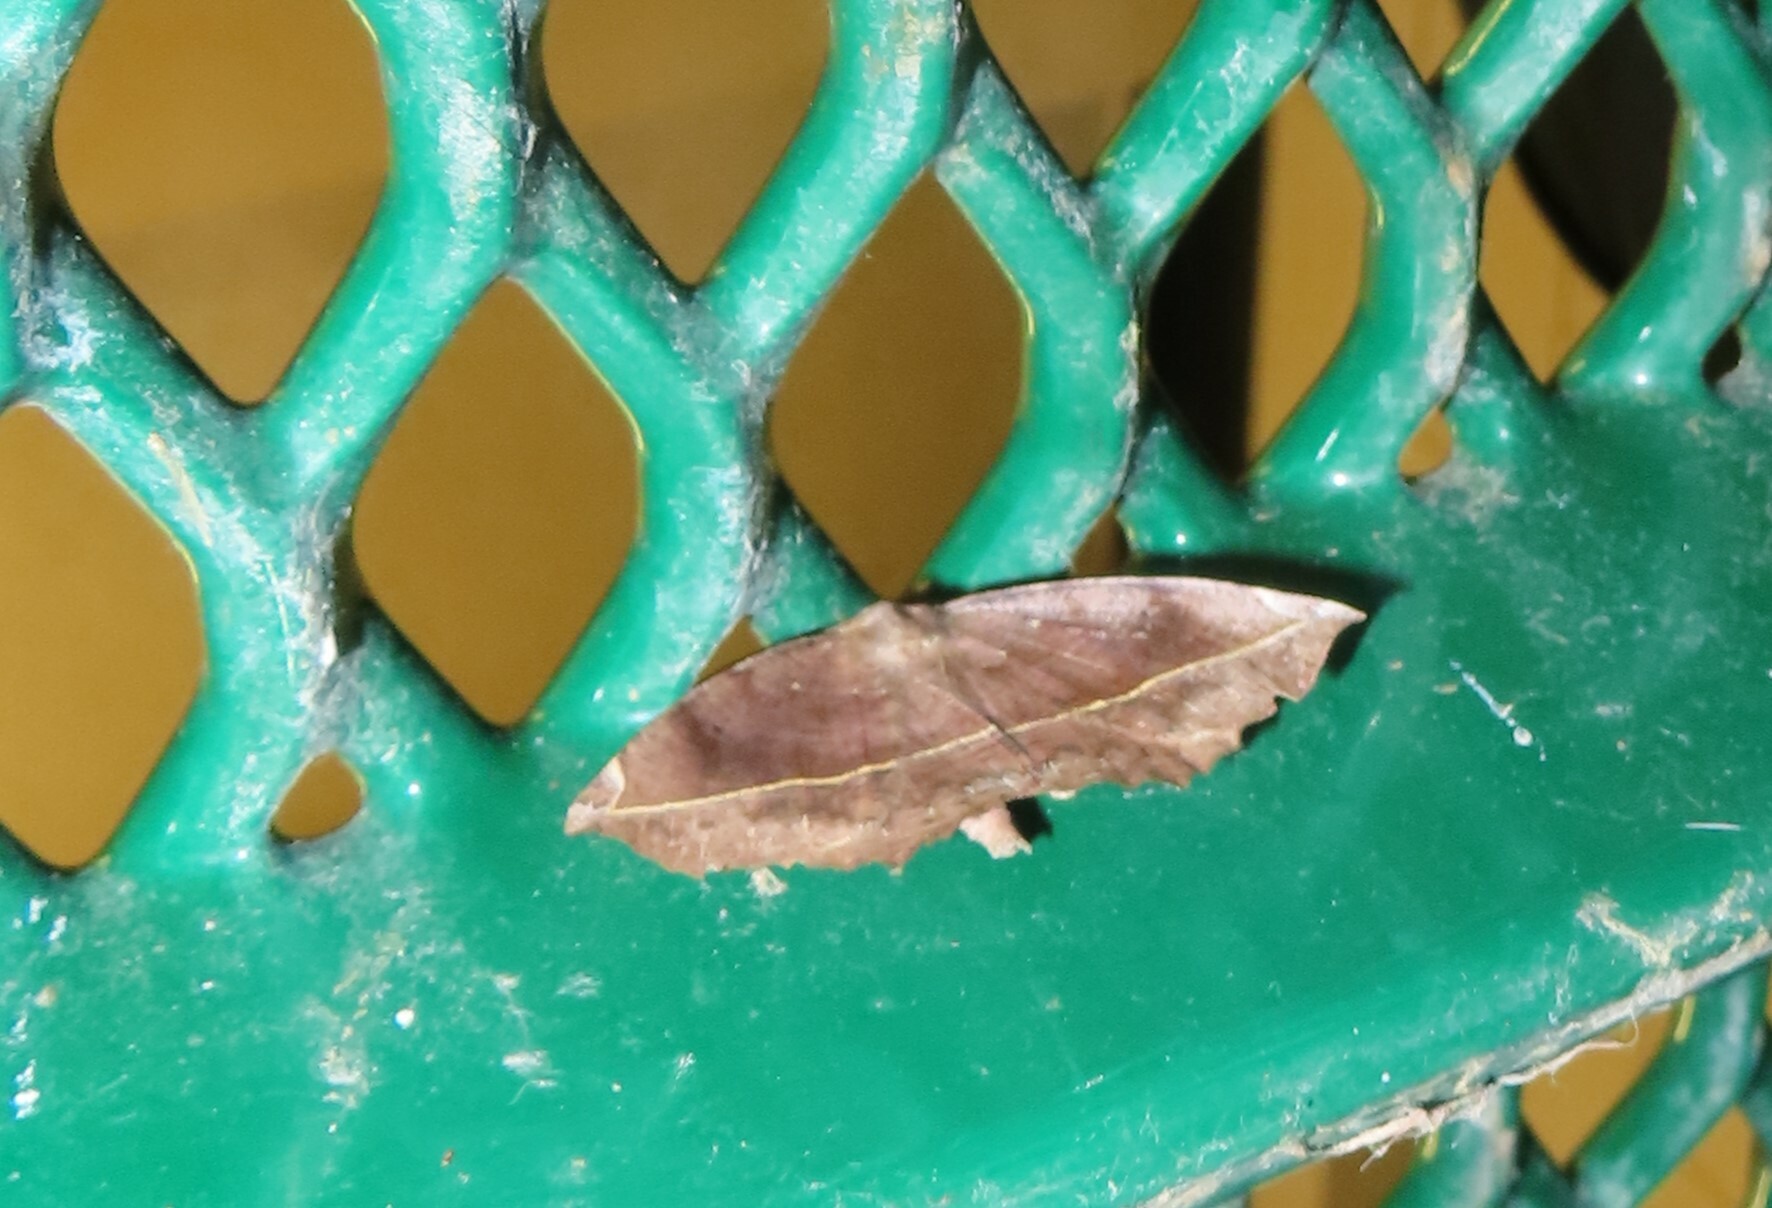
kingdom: Animalia
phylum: Arthropoda
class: Insecta
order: Lepidoptera
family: Geometridae
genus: Eutrapela
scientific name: Eutrapela clemataria
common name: Curved-toothed geometer
